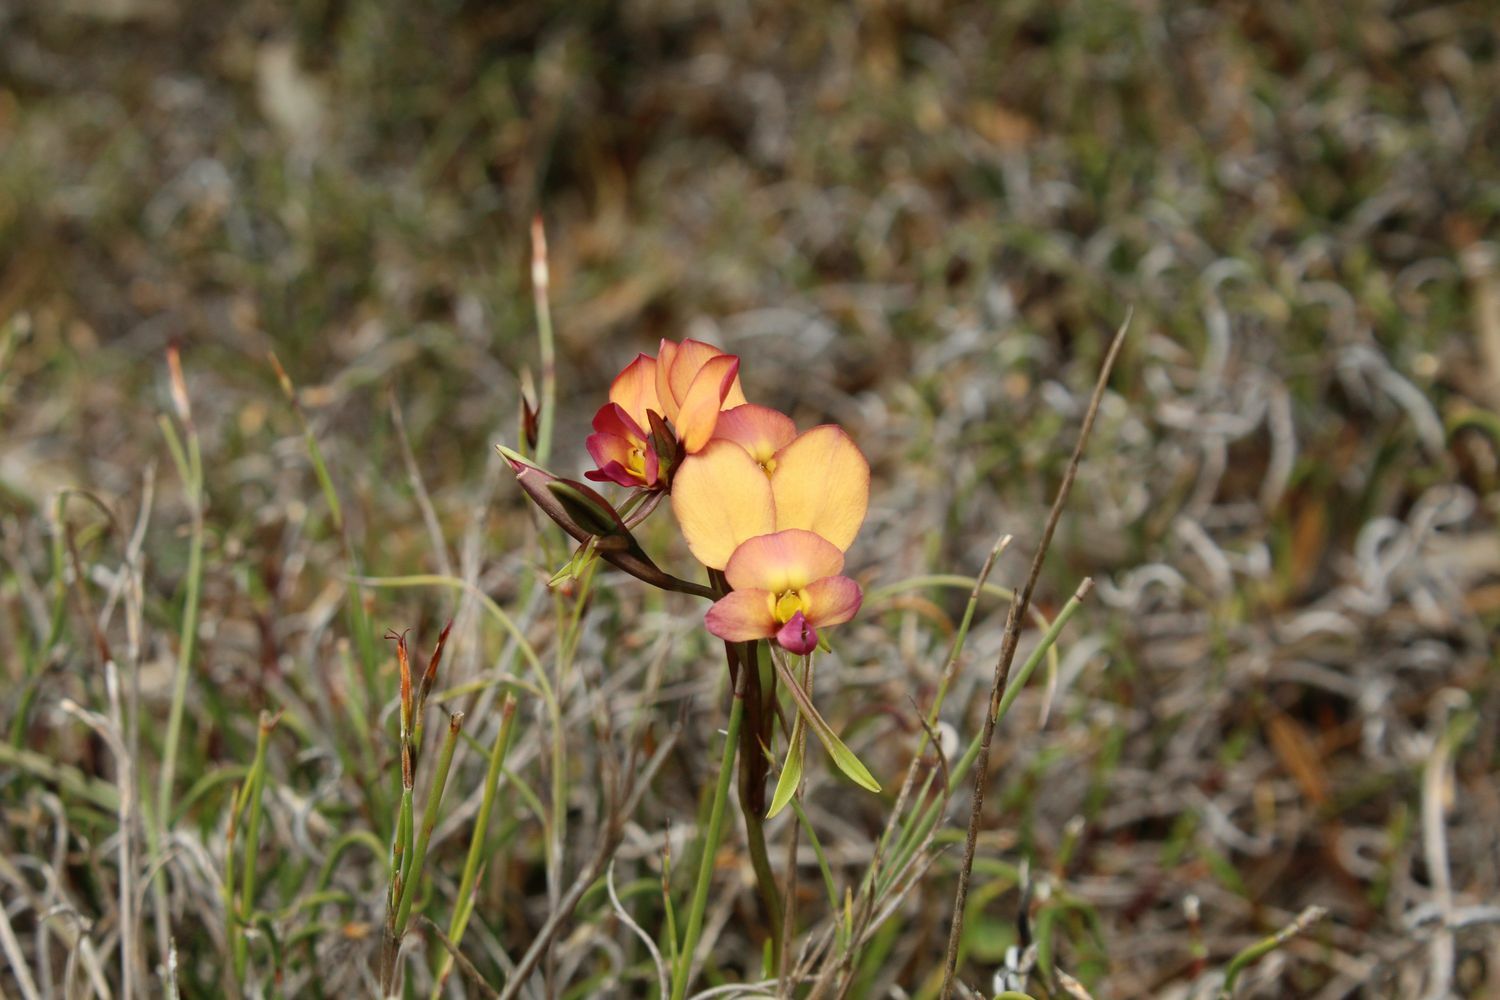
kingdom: Plantae
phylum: Tracheophyta
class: Liliopsida
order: Asparagales
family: Orchidaceae
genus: Diuris
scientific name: Diuris longifolia
